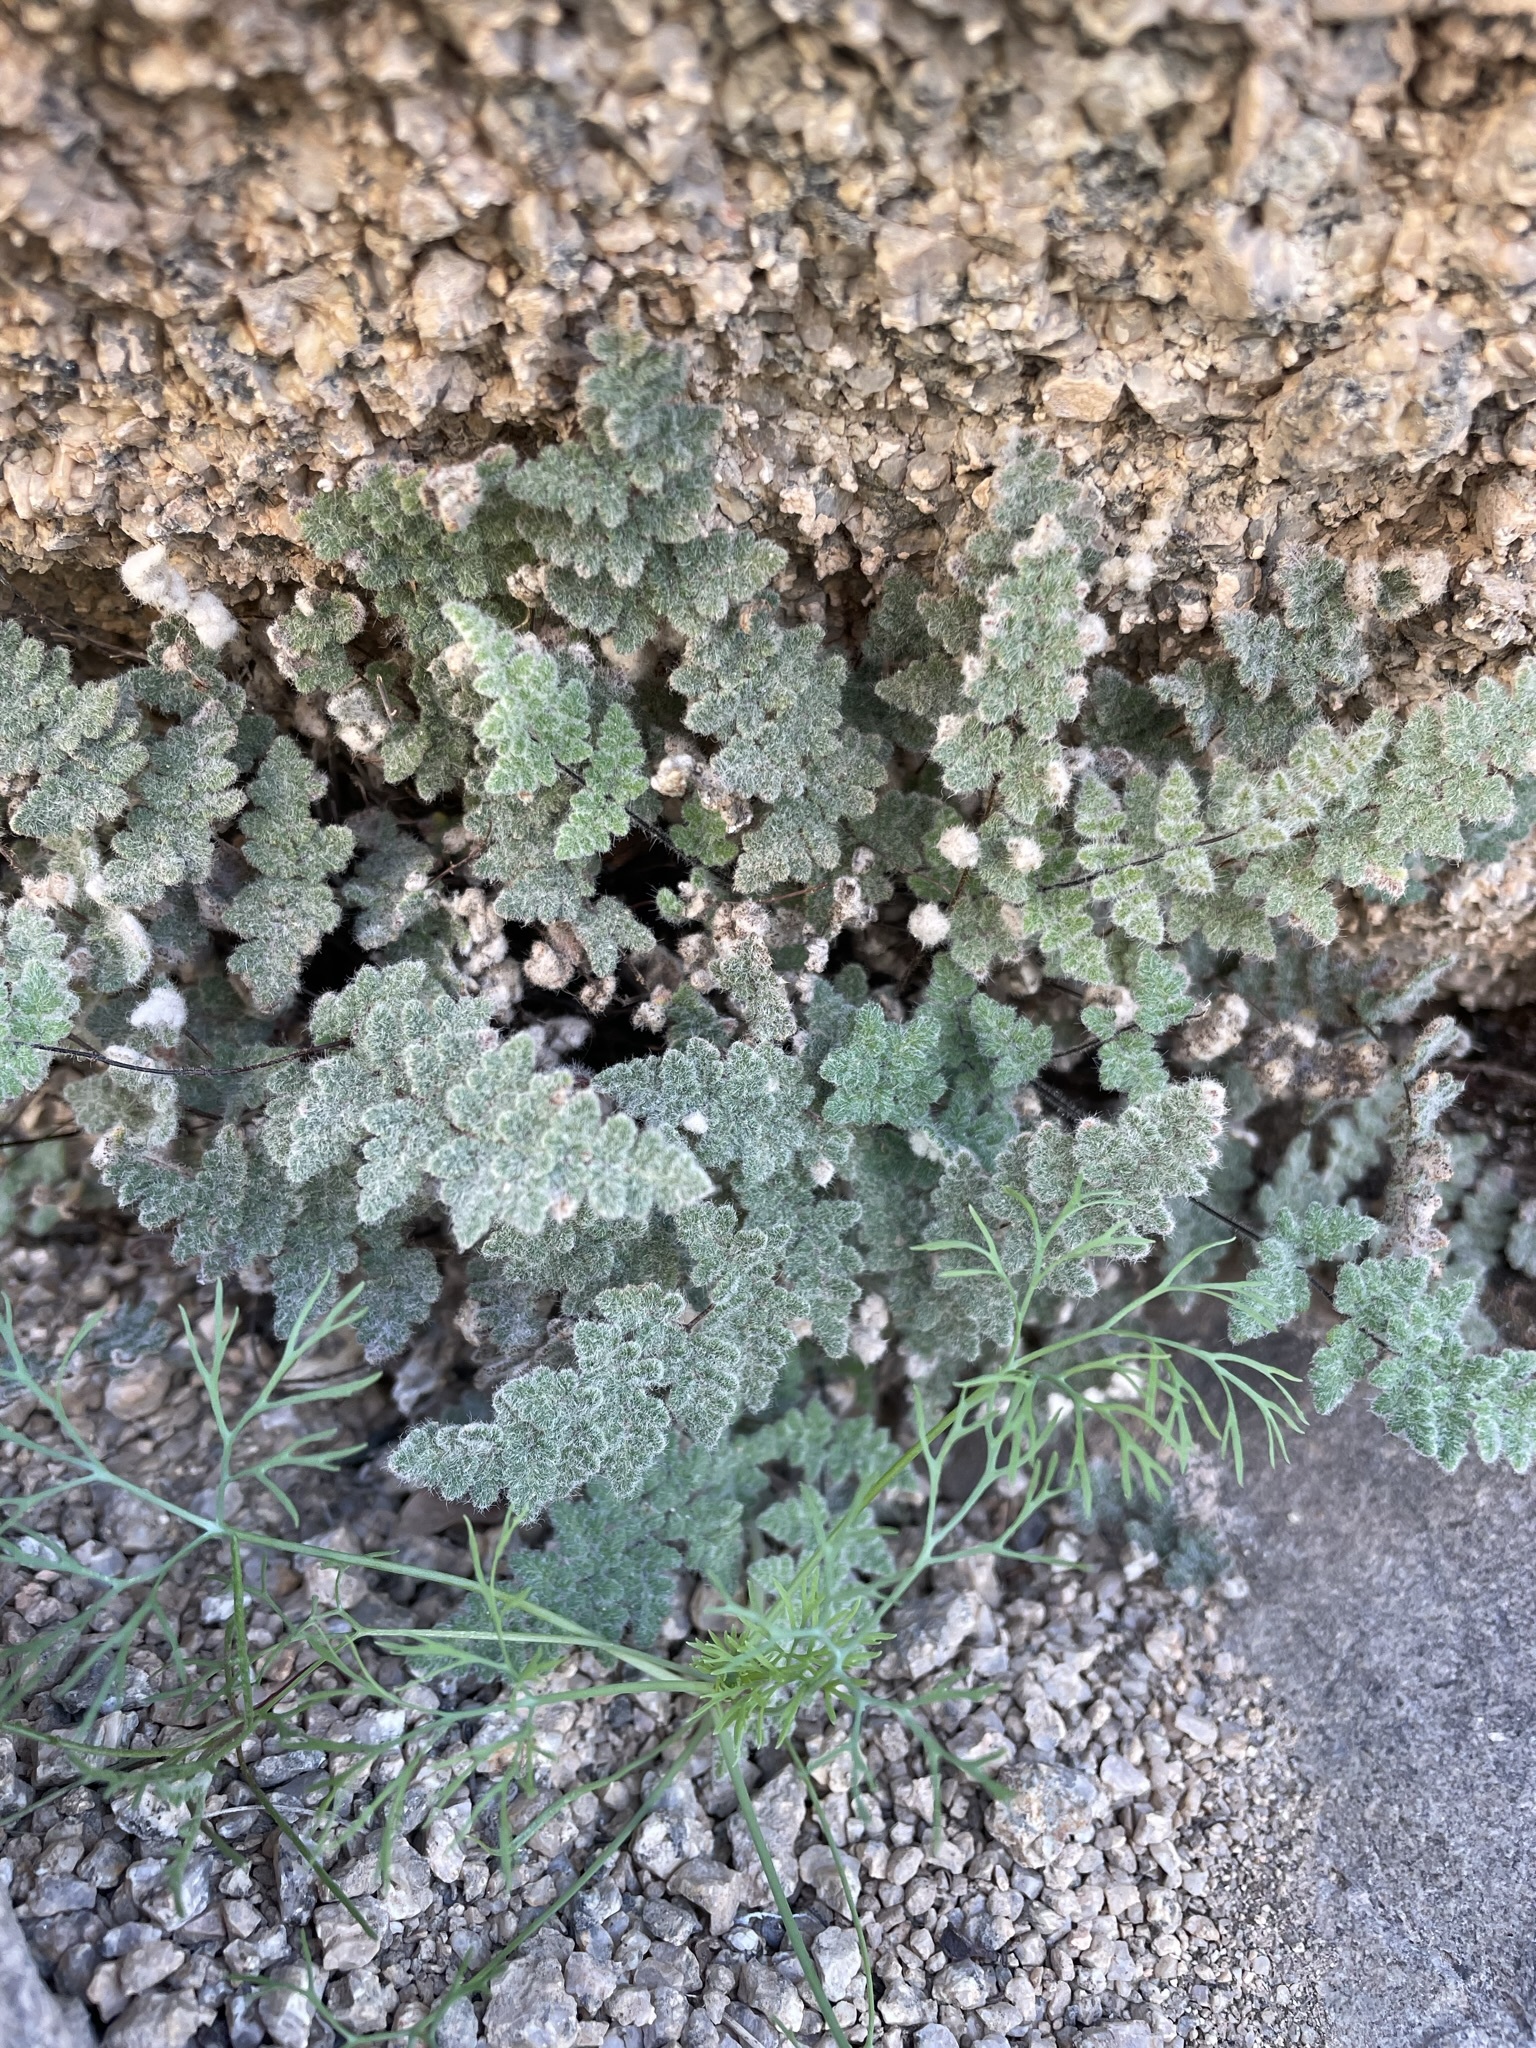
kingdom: Plantae
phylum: Tracheophyta
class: Polypodiopsida
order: Polypodiales
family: Pteridaceae
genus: Myriopteris
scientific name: Myriopteris parryi
